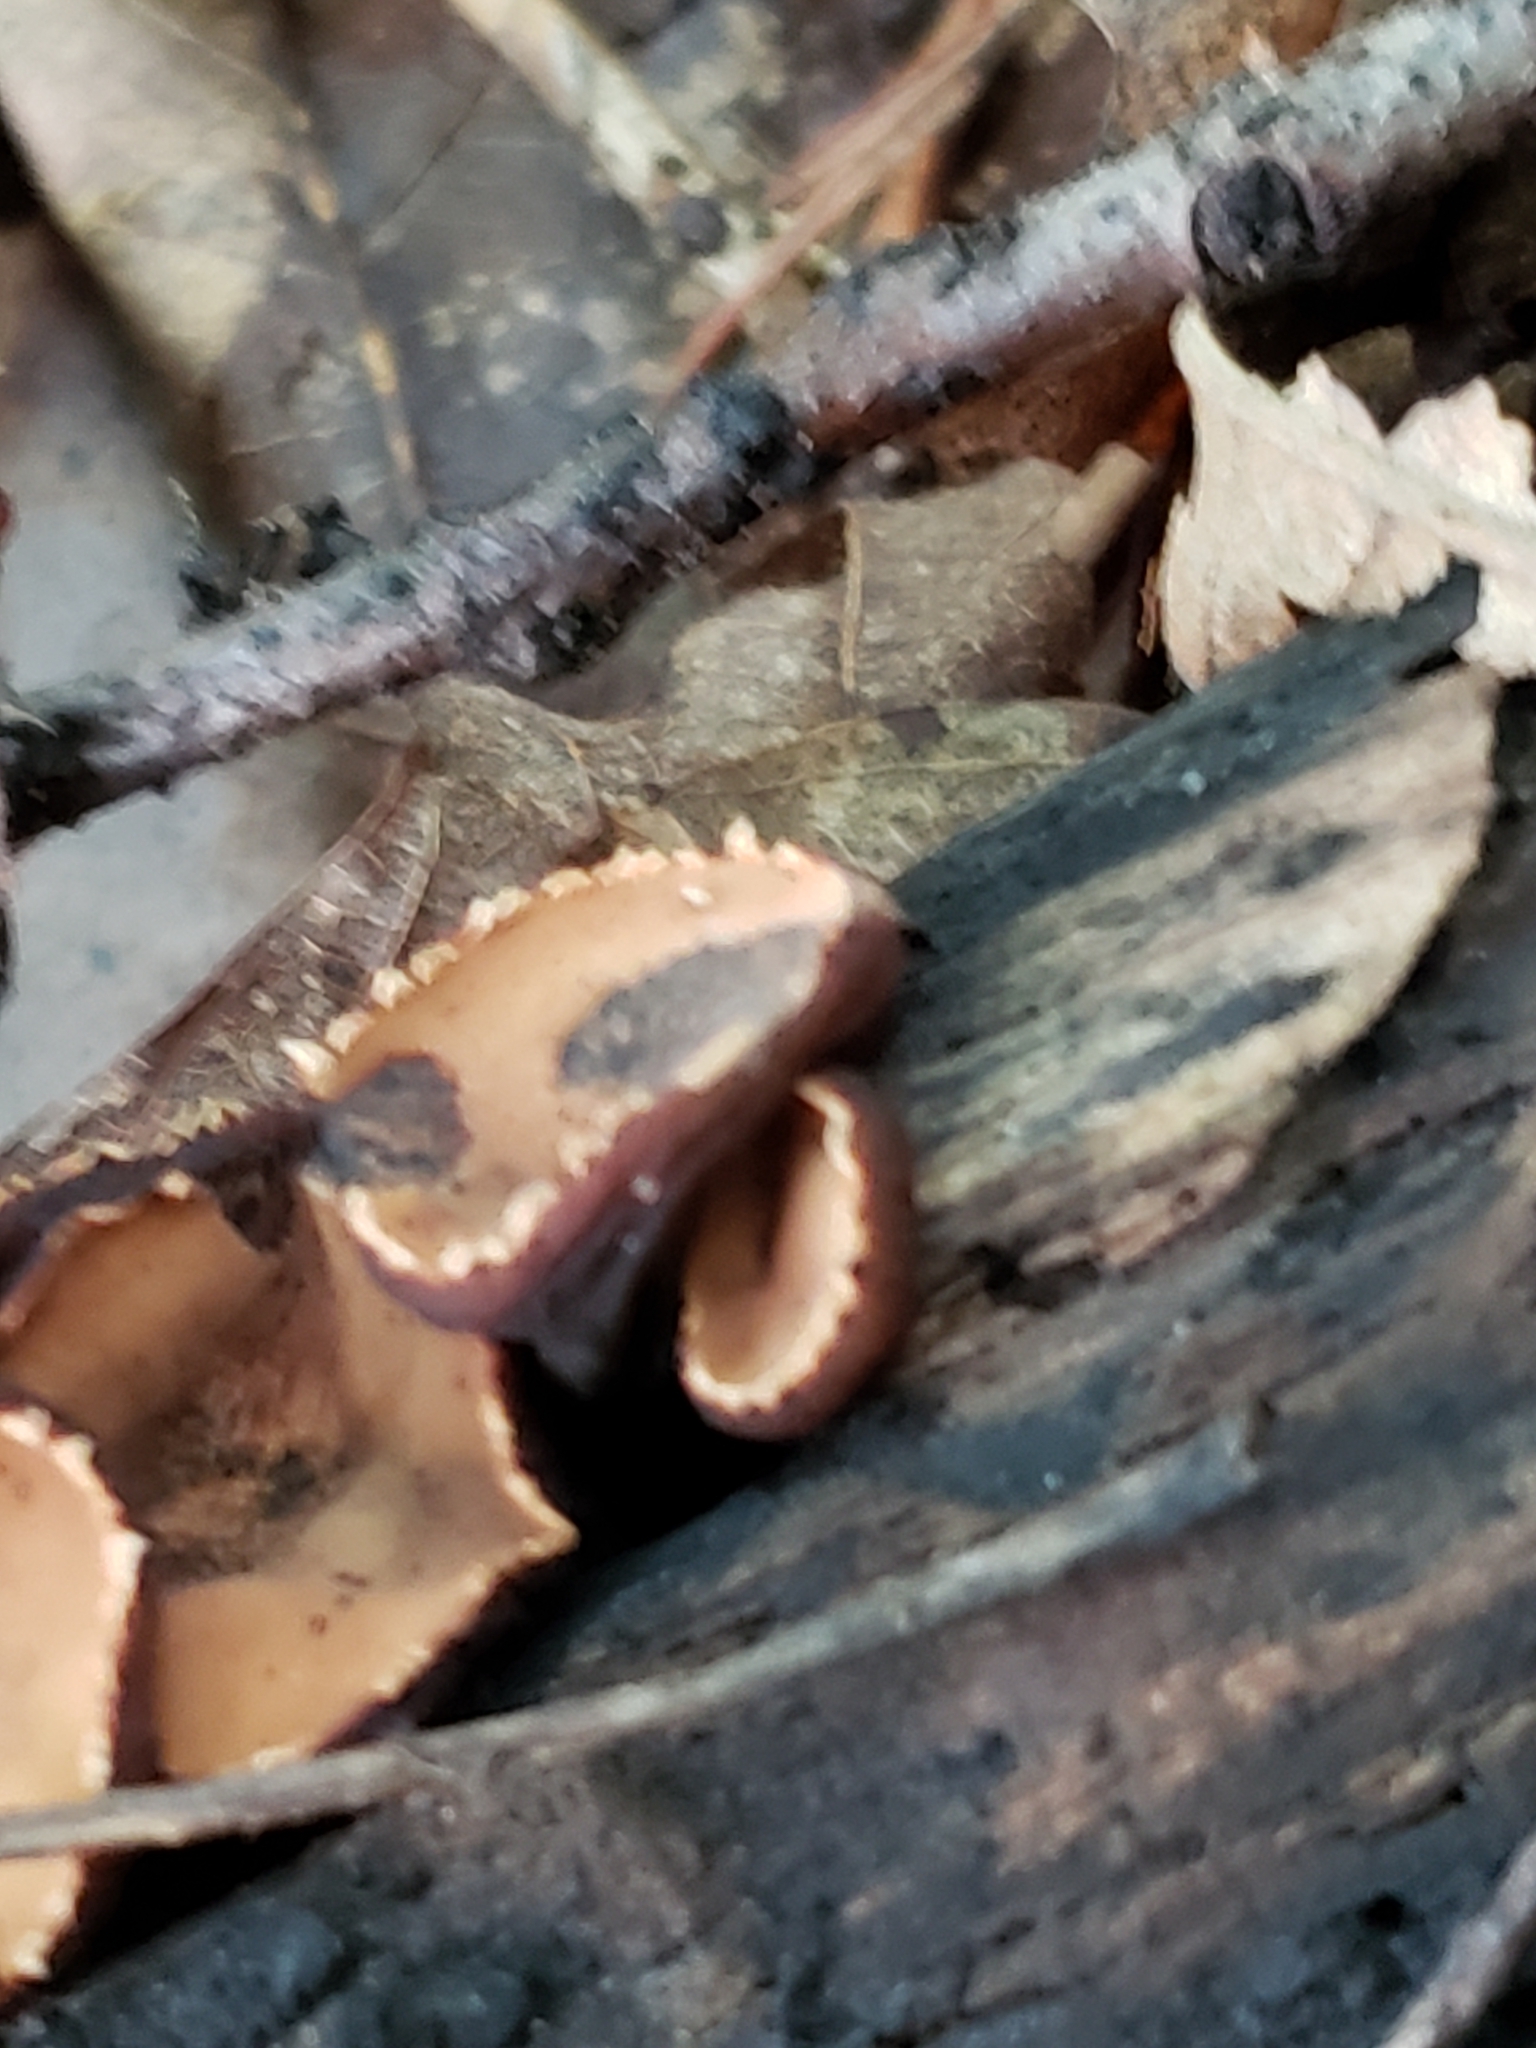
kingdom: Fungi
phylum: Ascomycota
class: Pezizomycetes
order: Pezizales
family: Sarcosomataceae
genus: Galiella
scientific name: Galiella rufa
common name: Hairy rubber cup
